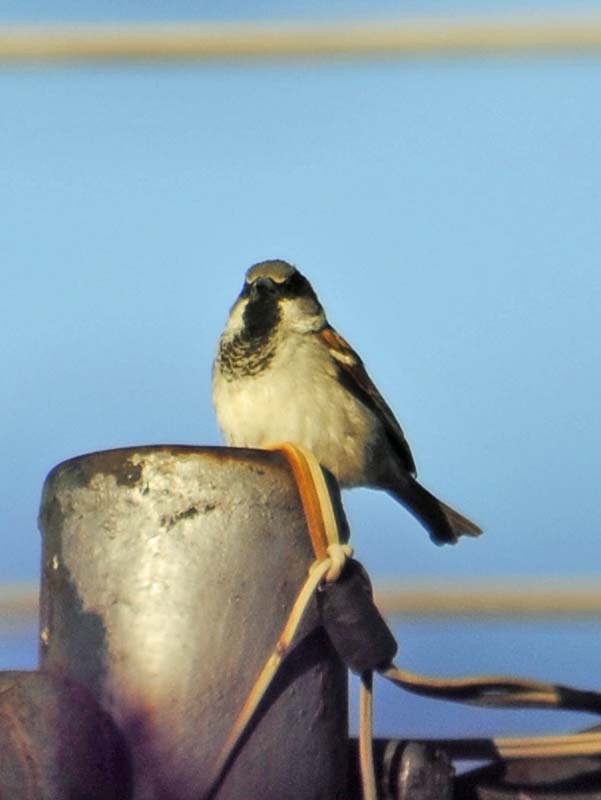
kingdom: Animalia
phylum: Chordata
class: Aves
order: Passeriformes
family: Passeridae
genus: Passer
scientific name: Passer domesticus
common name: House sparrow
